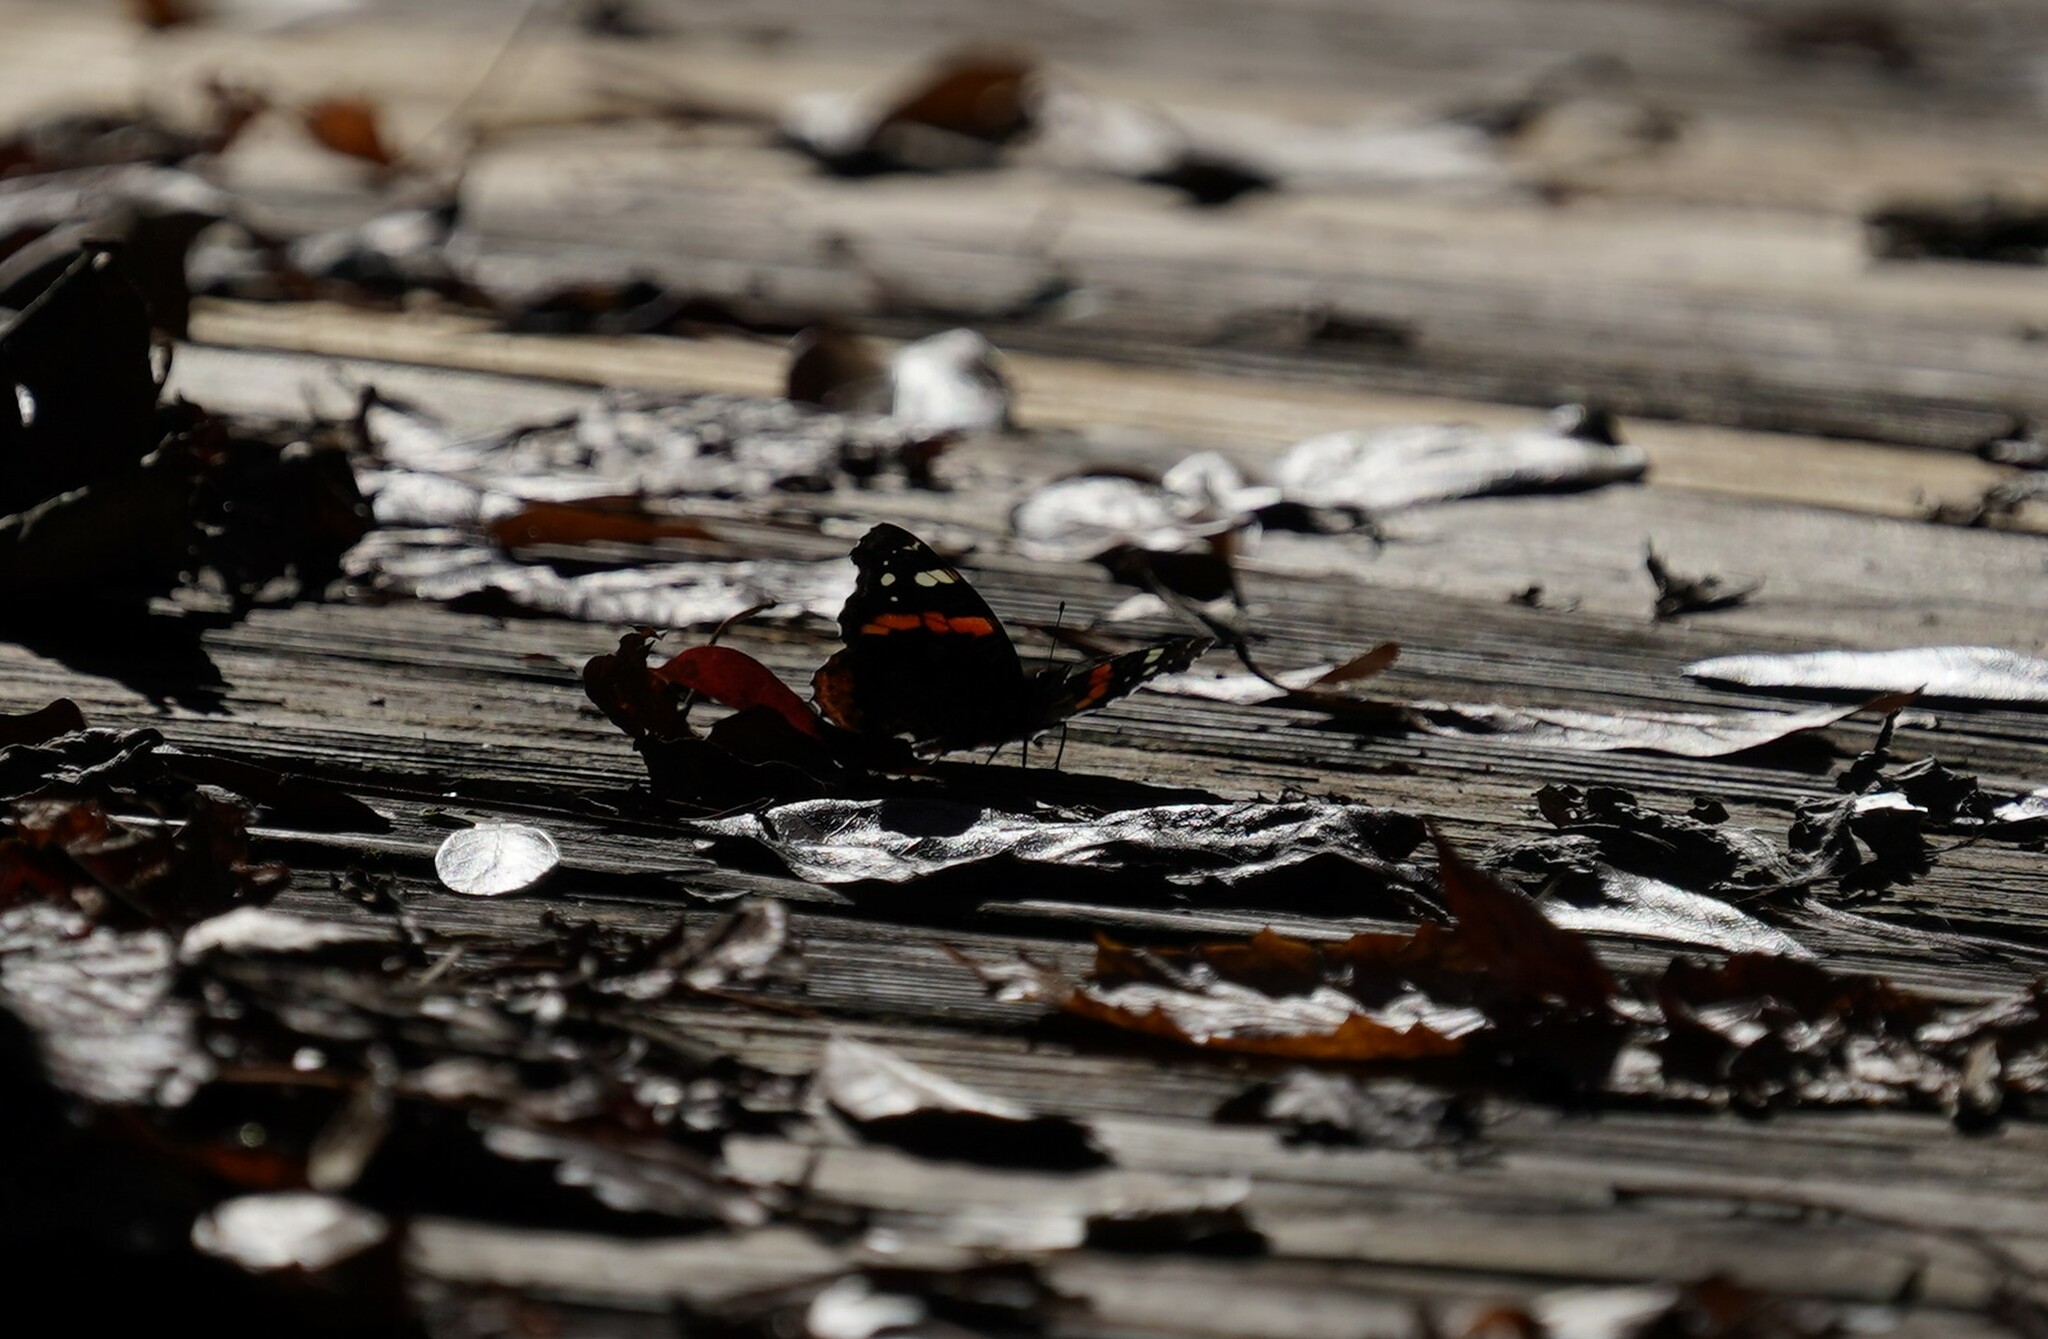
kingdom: Animalia
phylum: Arthropoda
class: Insecta
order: Lepidoptera
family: Nymphalidae
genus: Vanessa
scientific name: Vanessa atalanta
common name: Red admiral
